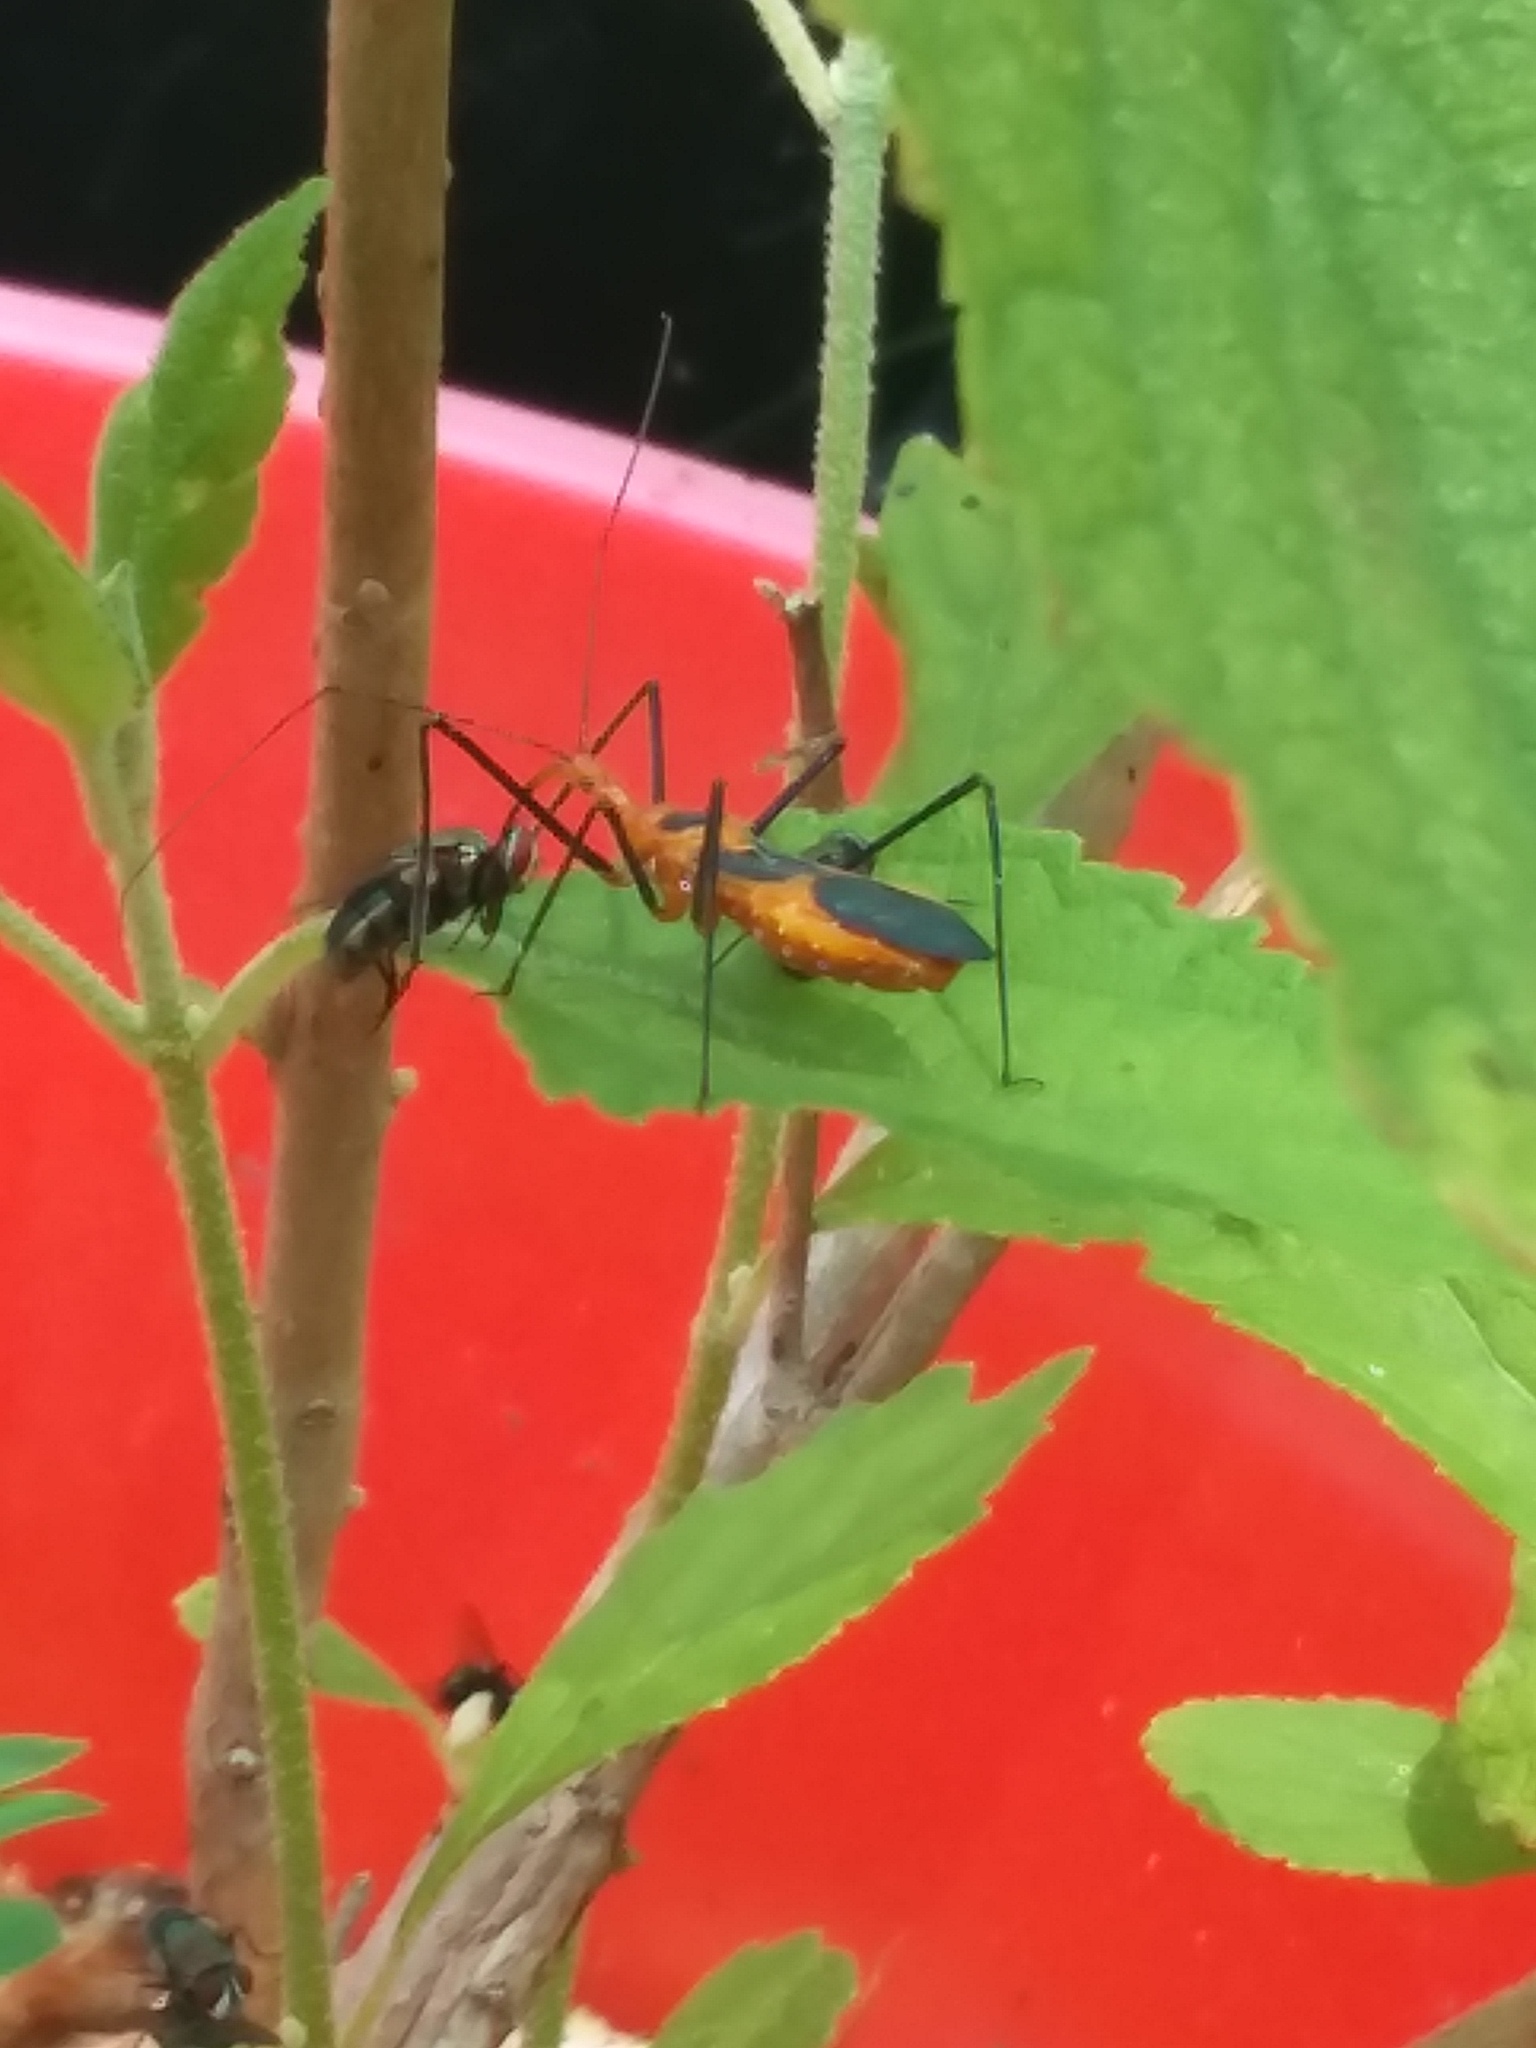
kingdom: Animalia
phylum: Arthropoda
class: Insecta
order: Hemiptera
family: Reduviidae
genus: Zelus
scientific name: Zelus longipes
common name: Milkweed assassin bug
